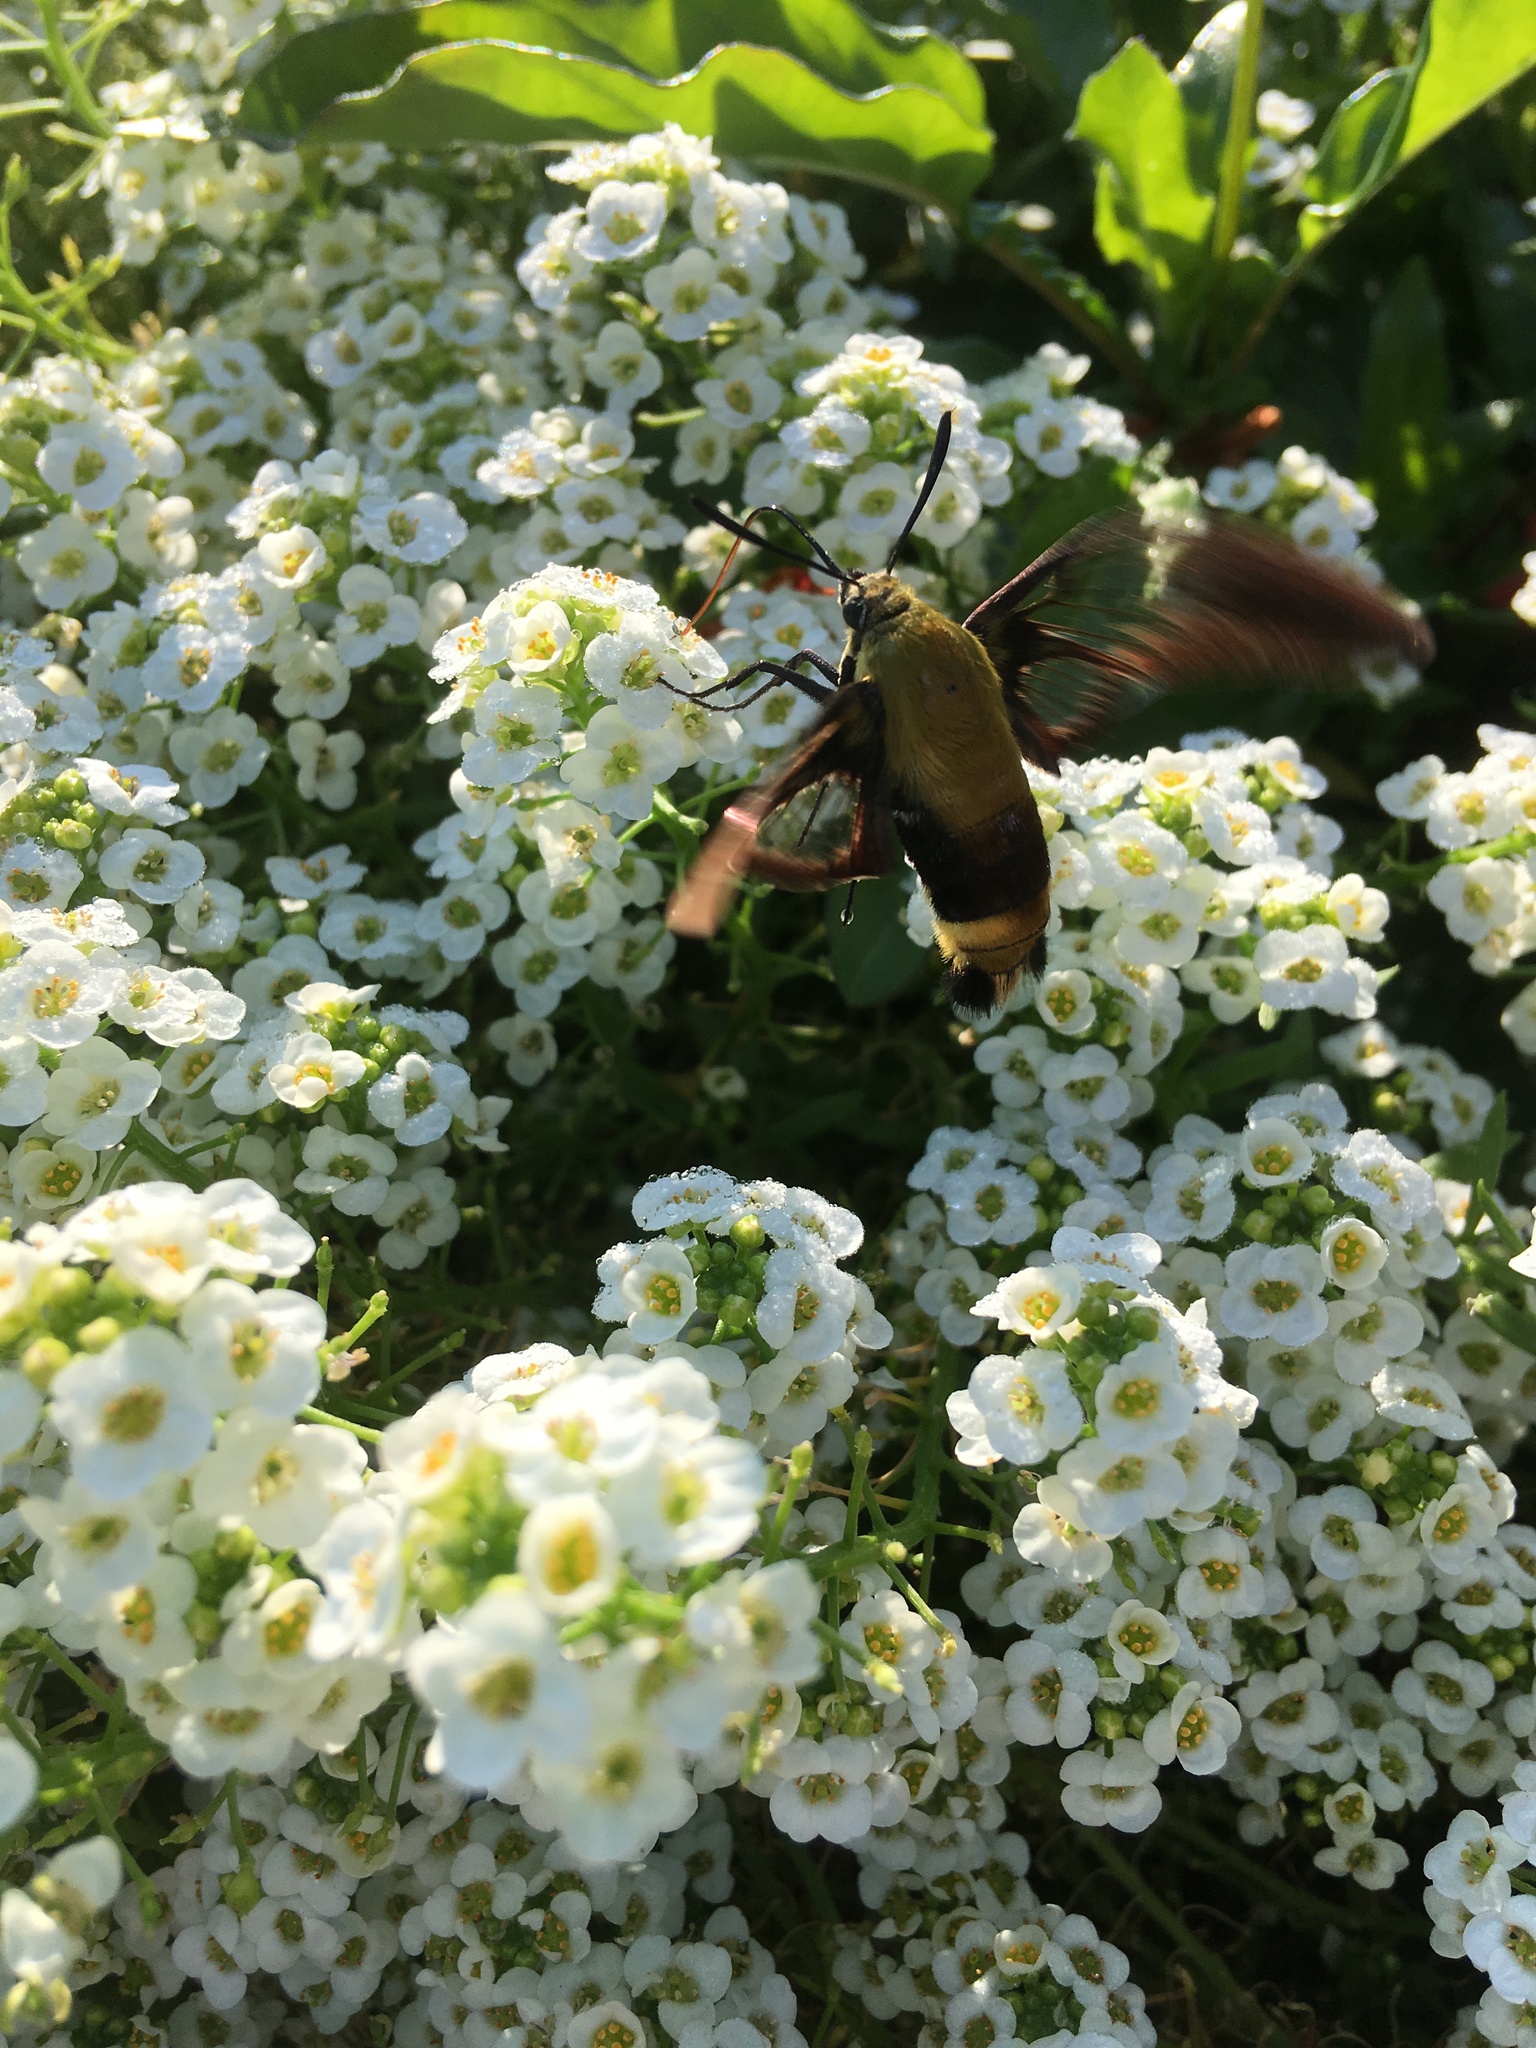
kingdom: Animalia
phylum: Arthropoda
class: Insecta
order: Lepidoptera
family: Sphingidae
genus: Hemaris
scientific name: Hemaris diffinis
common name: Bumblebee moth
